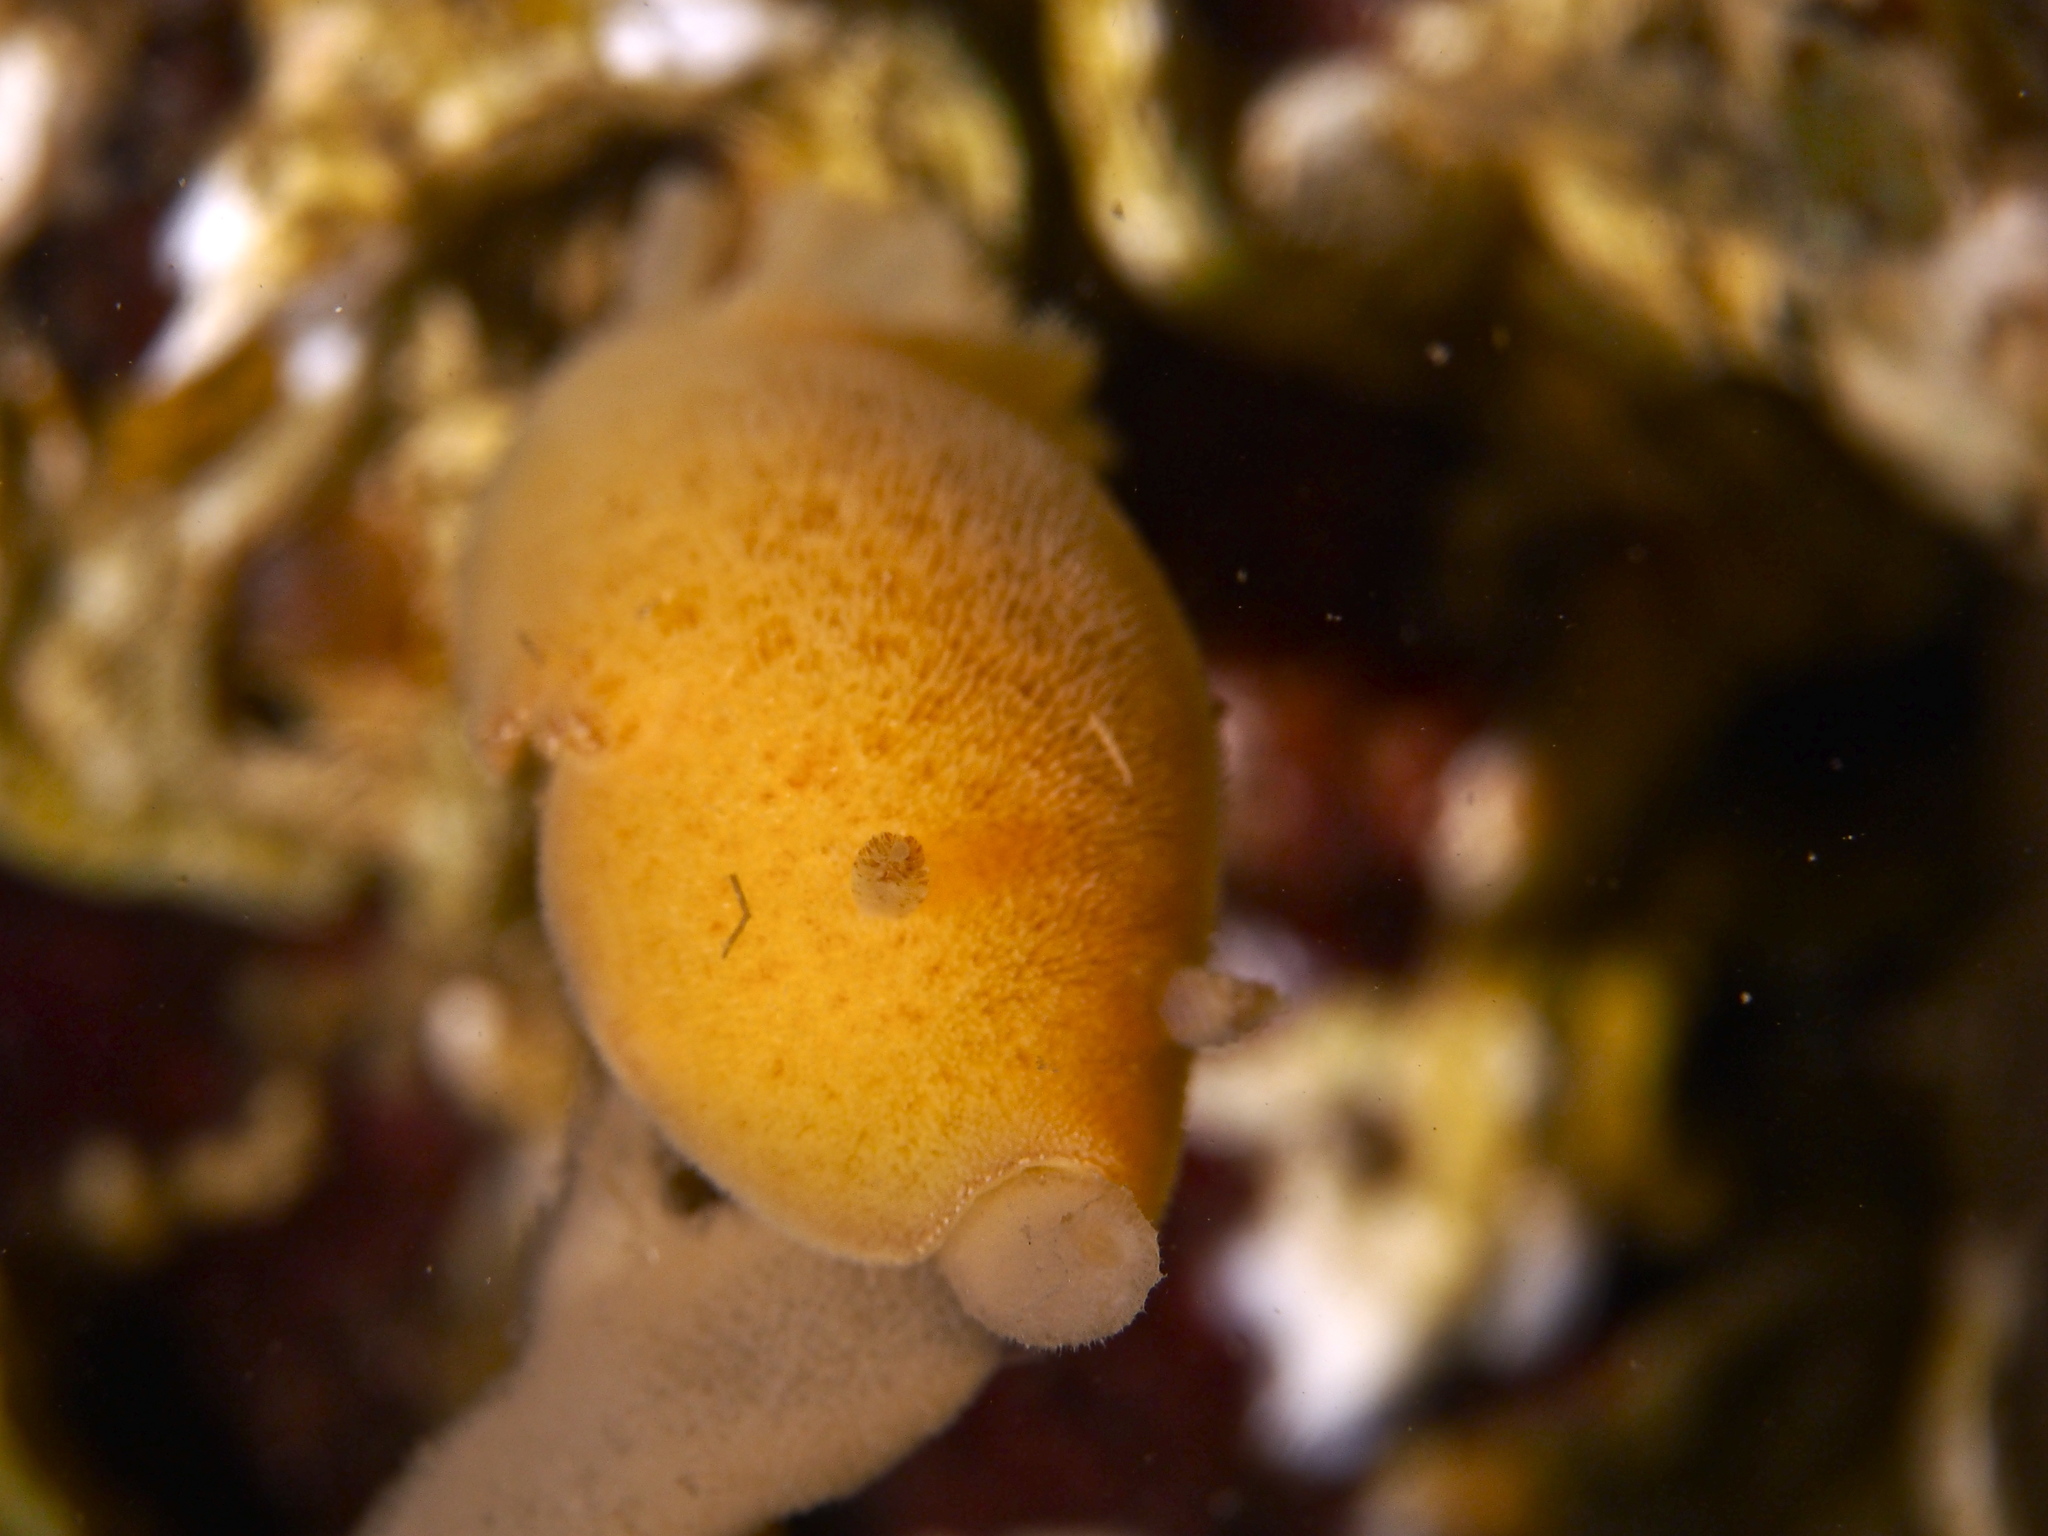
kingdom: Animalia
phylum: Mollusca
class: Gastropoda
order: Nudibranchia
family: Discodorididae
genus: Jorunna
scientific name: Jorunna tomentosa
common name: Grey sea slug
